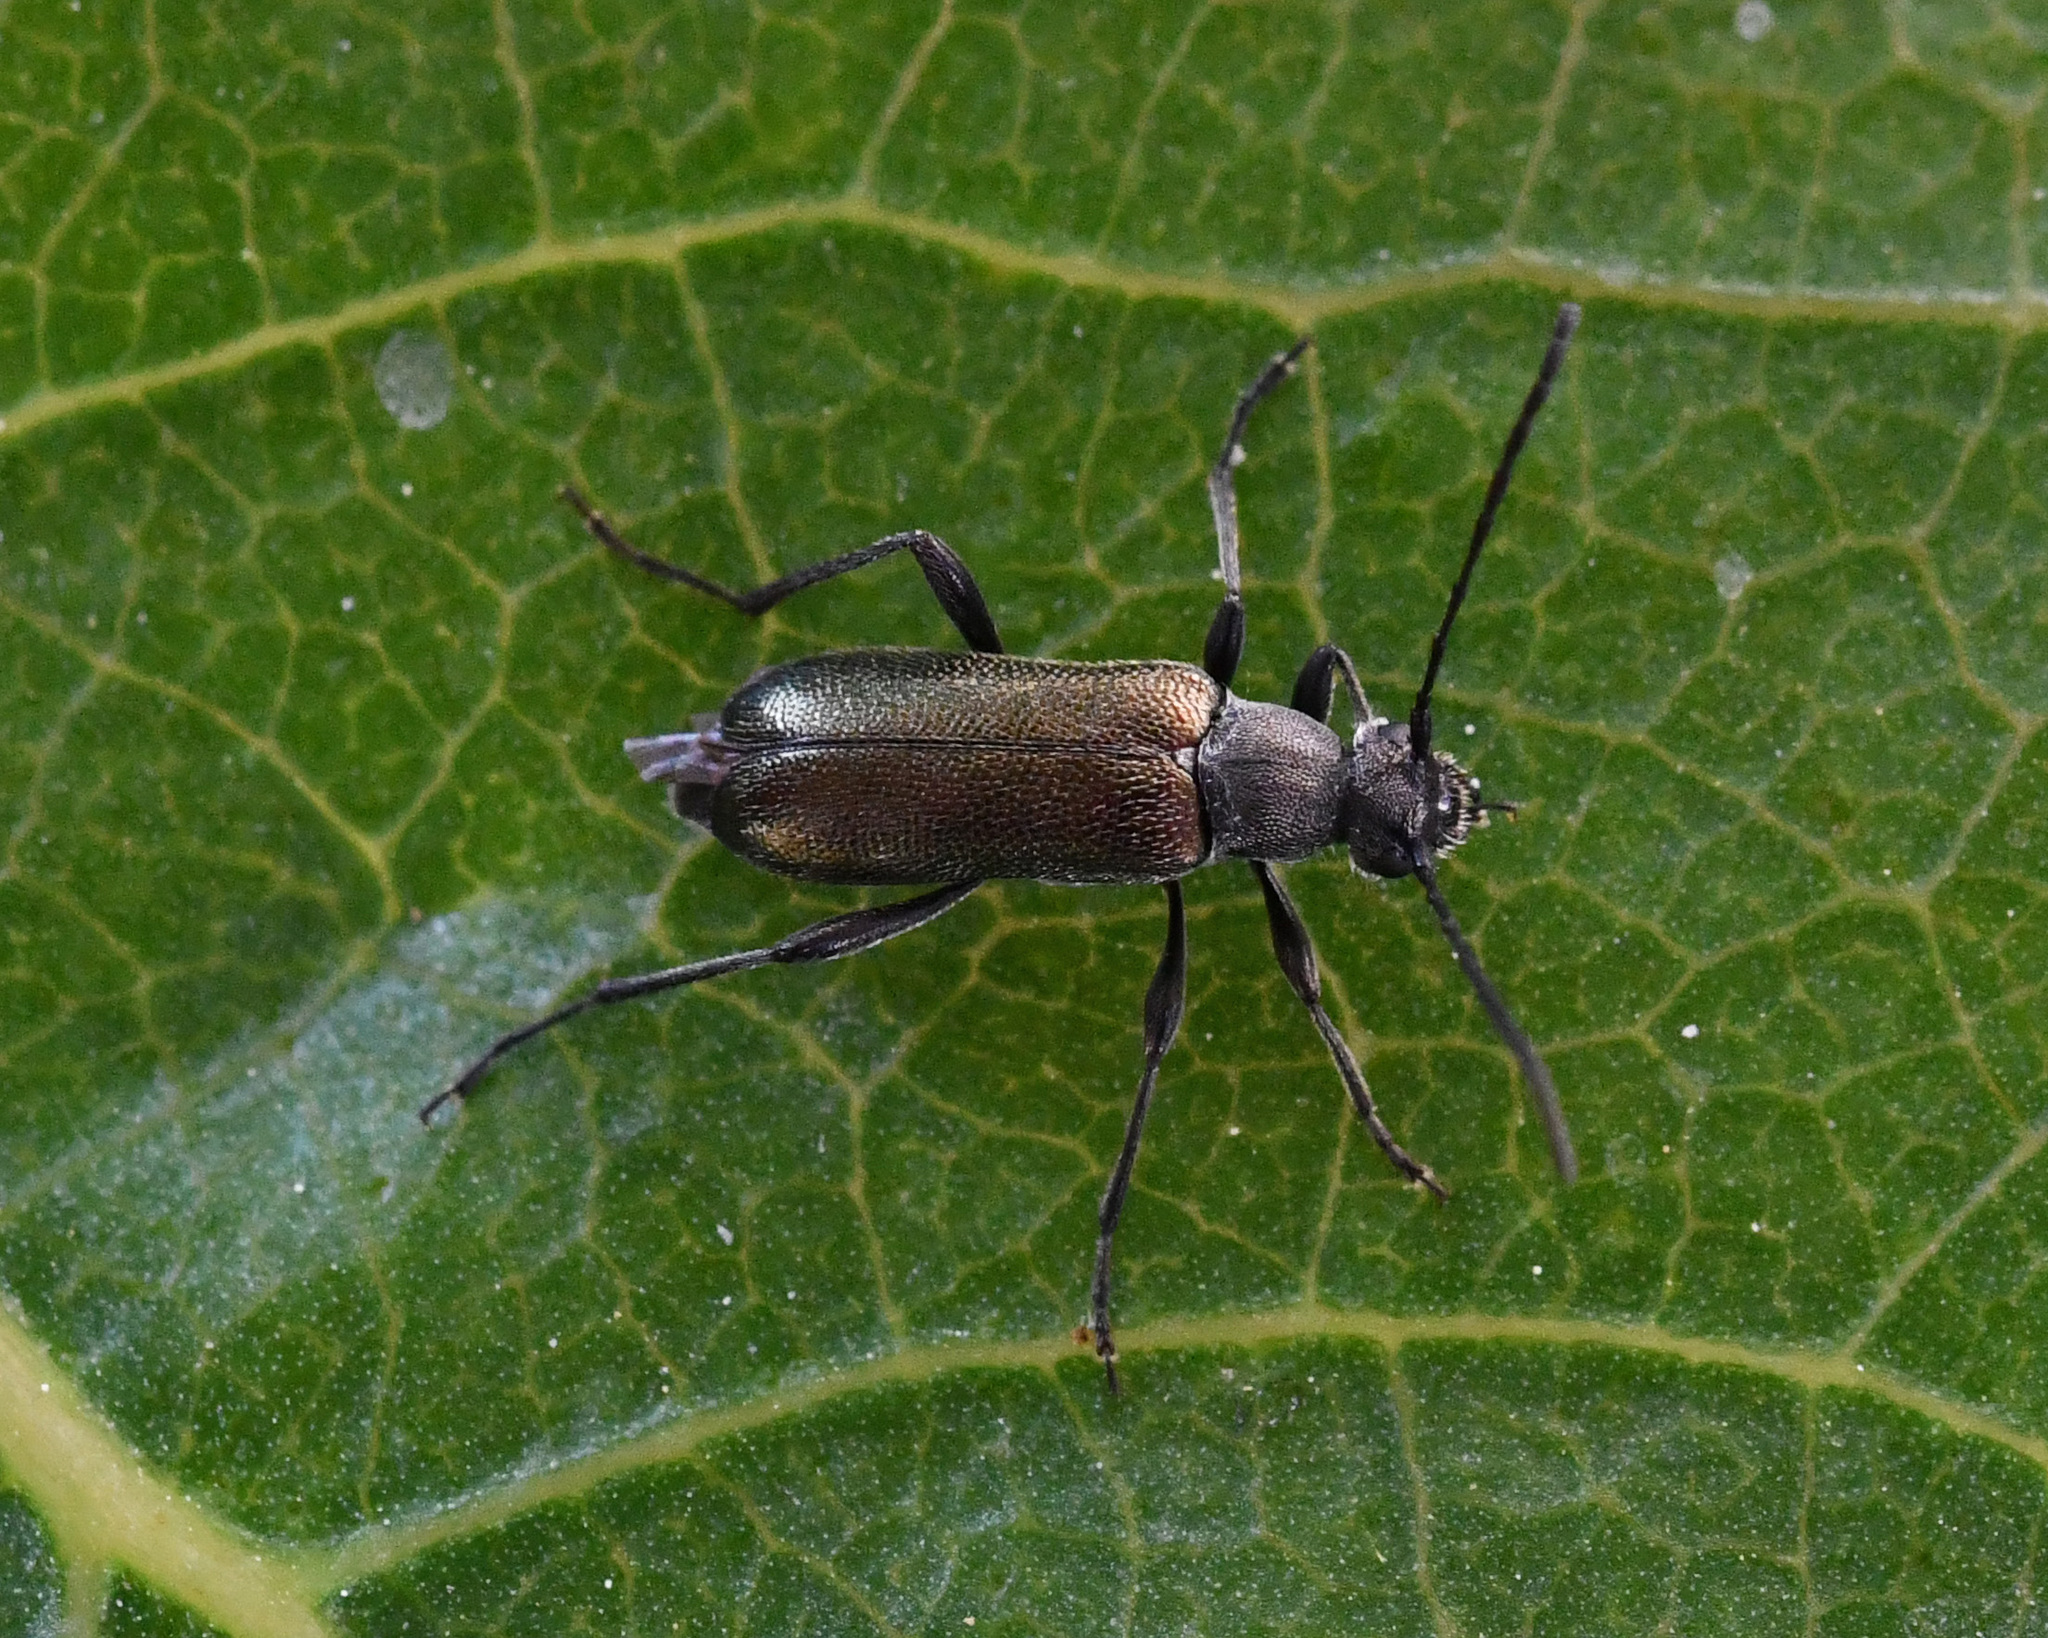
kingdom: Animalia
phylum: Arthropoda
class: Insecta
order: Coleoptera
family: Cerambycidae
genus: Grammoptera
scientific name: Grammoptera baudii
